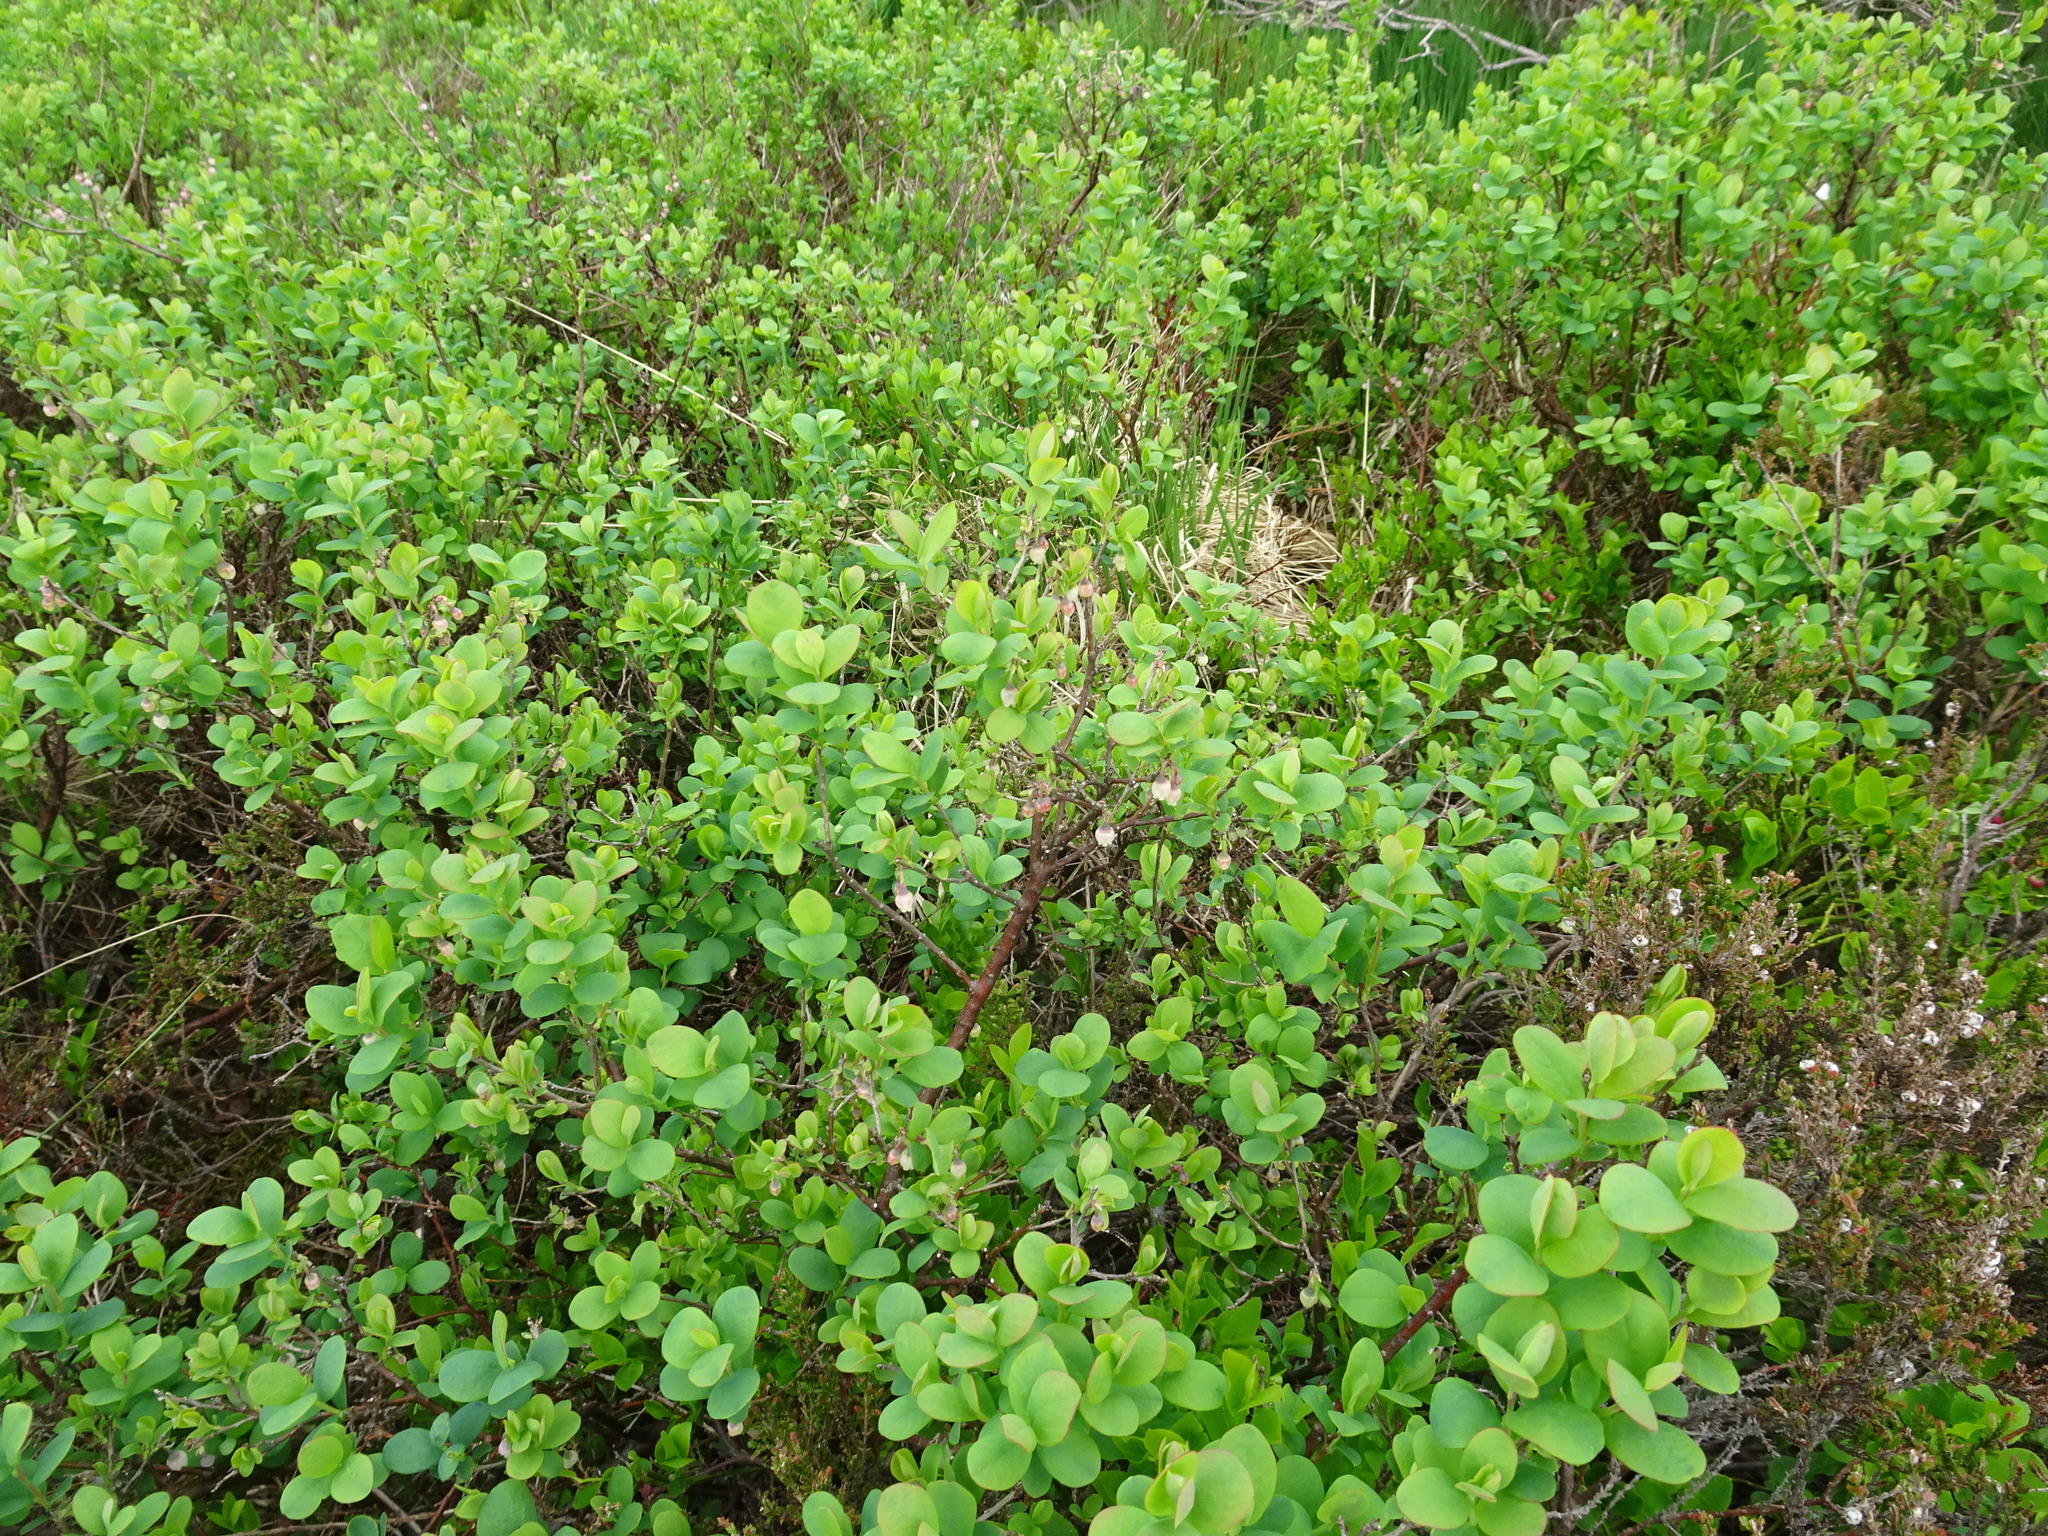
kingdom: Plantae
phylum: Tracheophyta
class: Magnoliopsida
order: Ericales
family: Ericaceae
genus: Vaccinium
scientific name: Vaccinium uliginosum
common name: Bog bilberry
